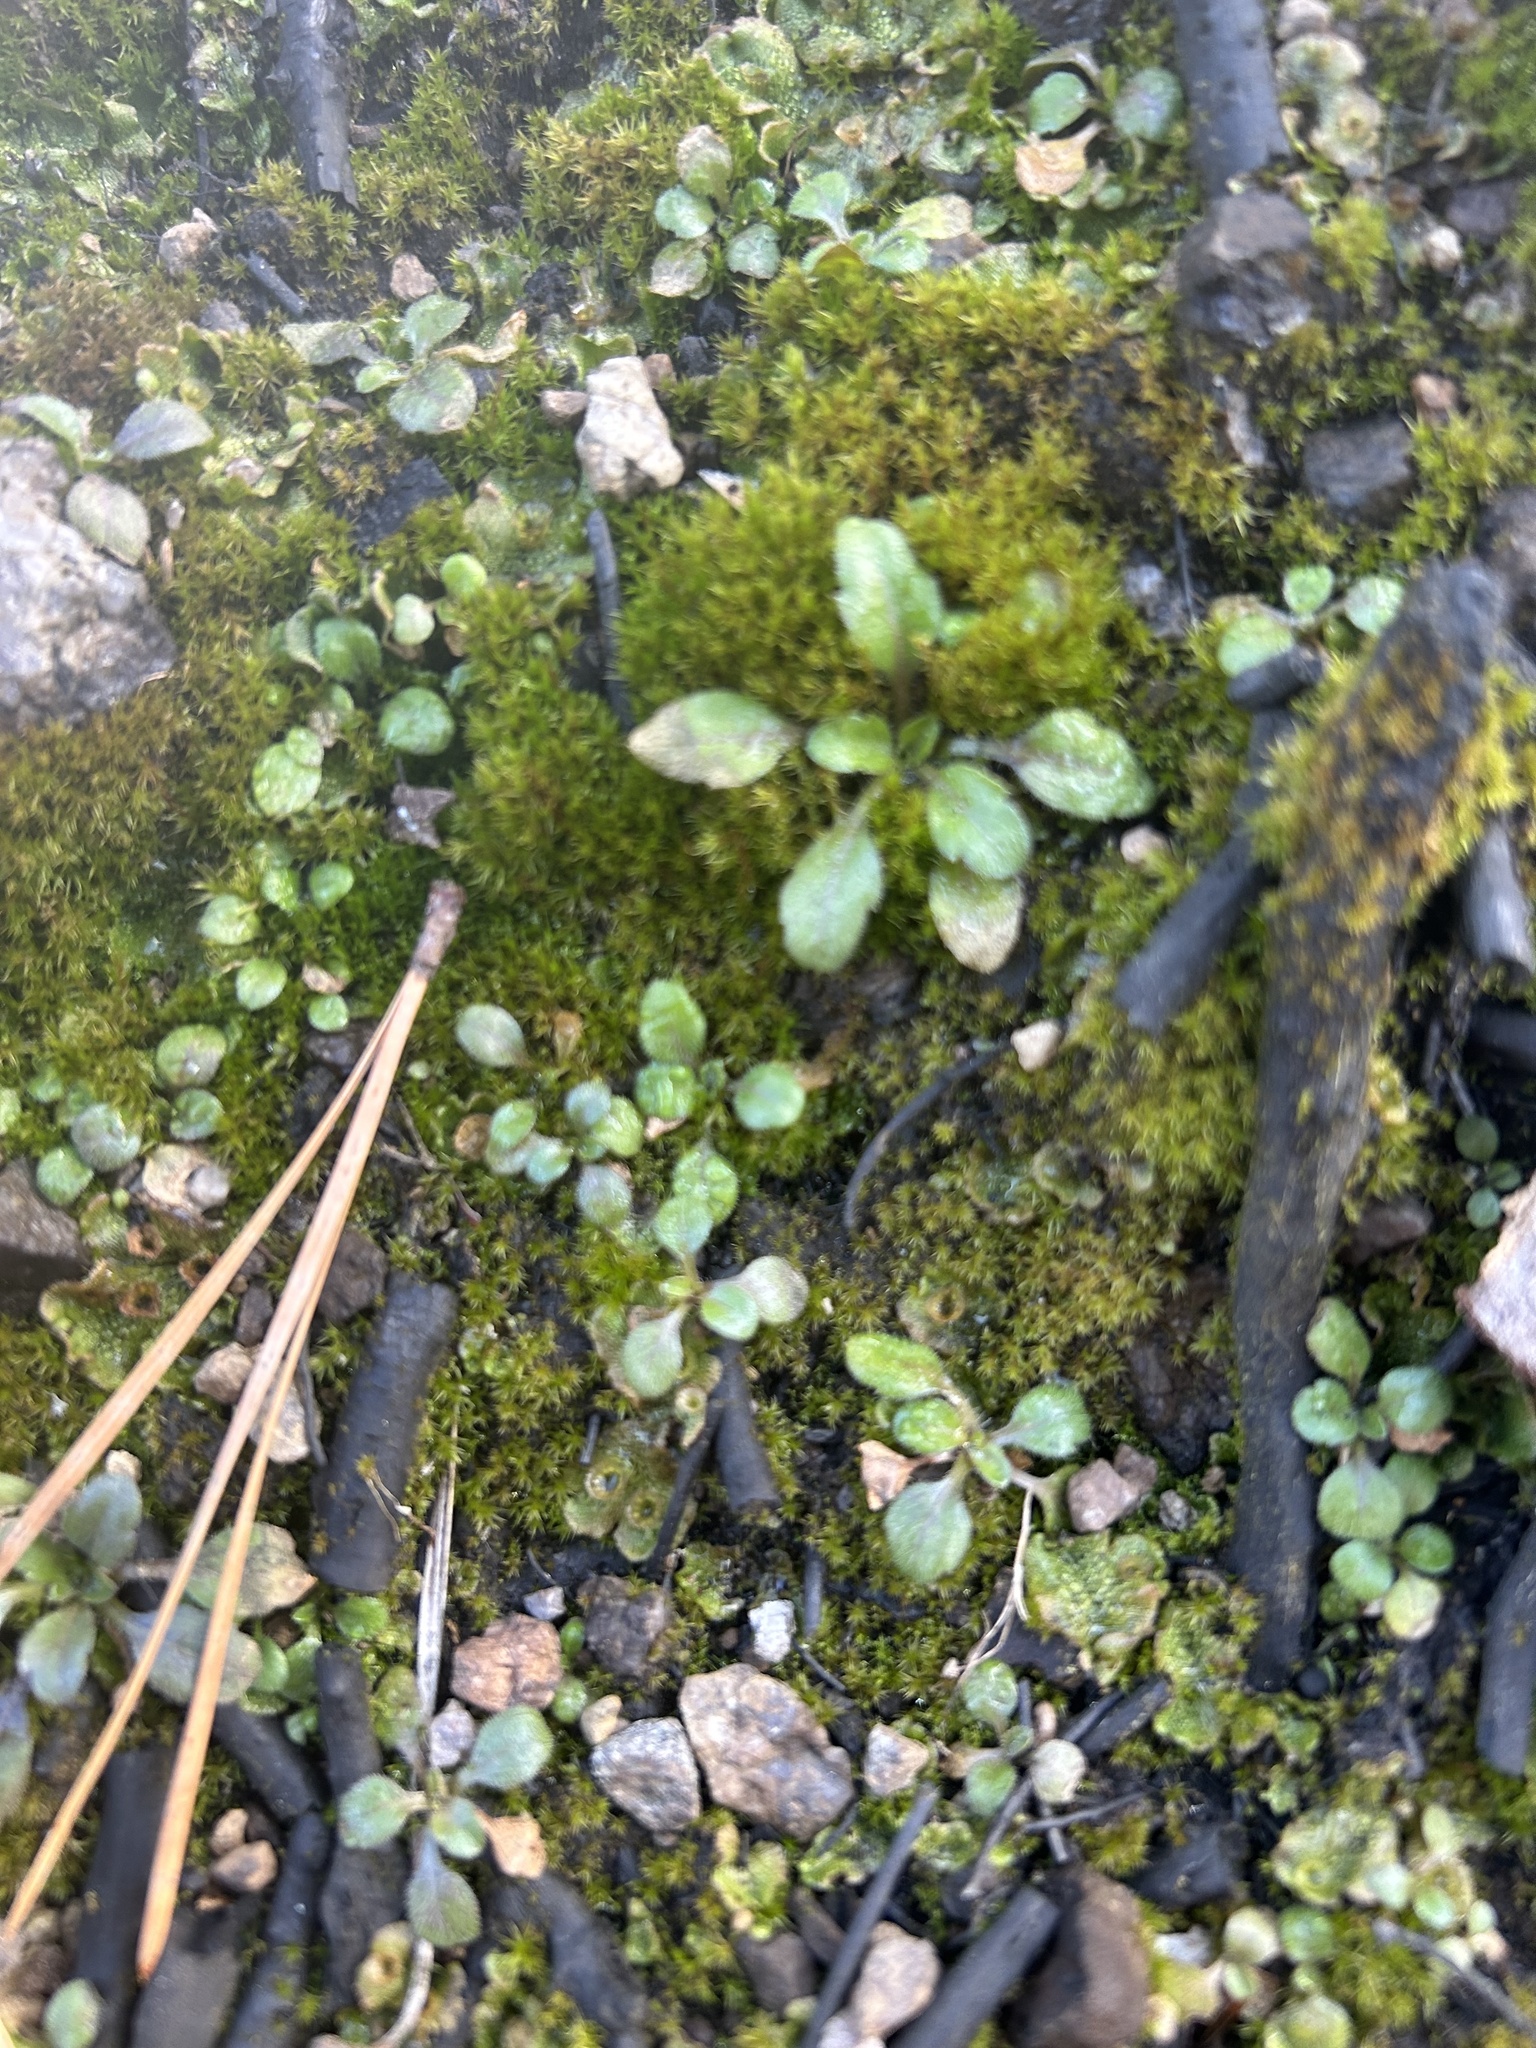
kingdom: Plantae
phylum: Tracheophyta
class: Magnoliopsida
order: Brassicales
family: Brassicaceae
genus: Arabidopsis
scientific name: Arabidopsis thaliana
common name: Thale cress
